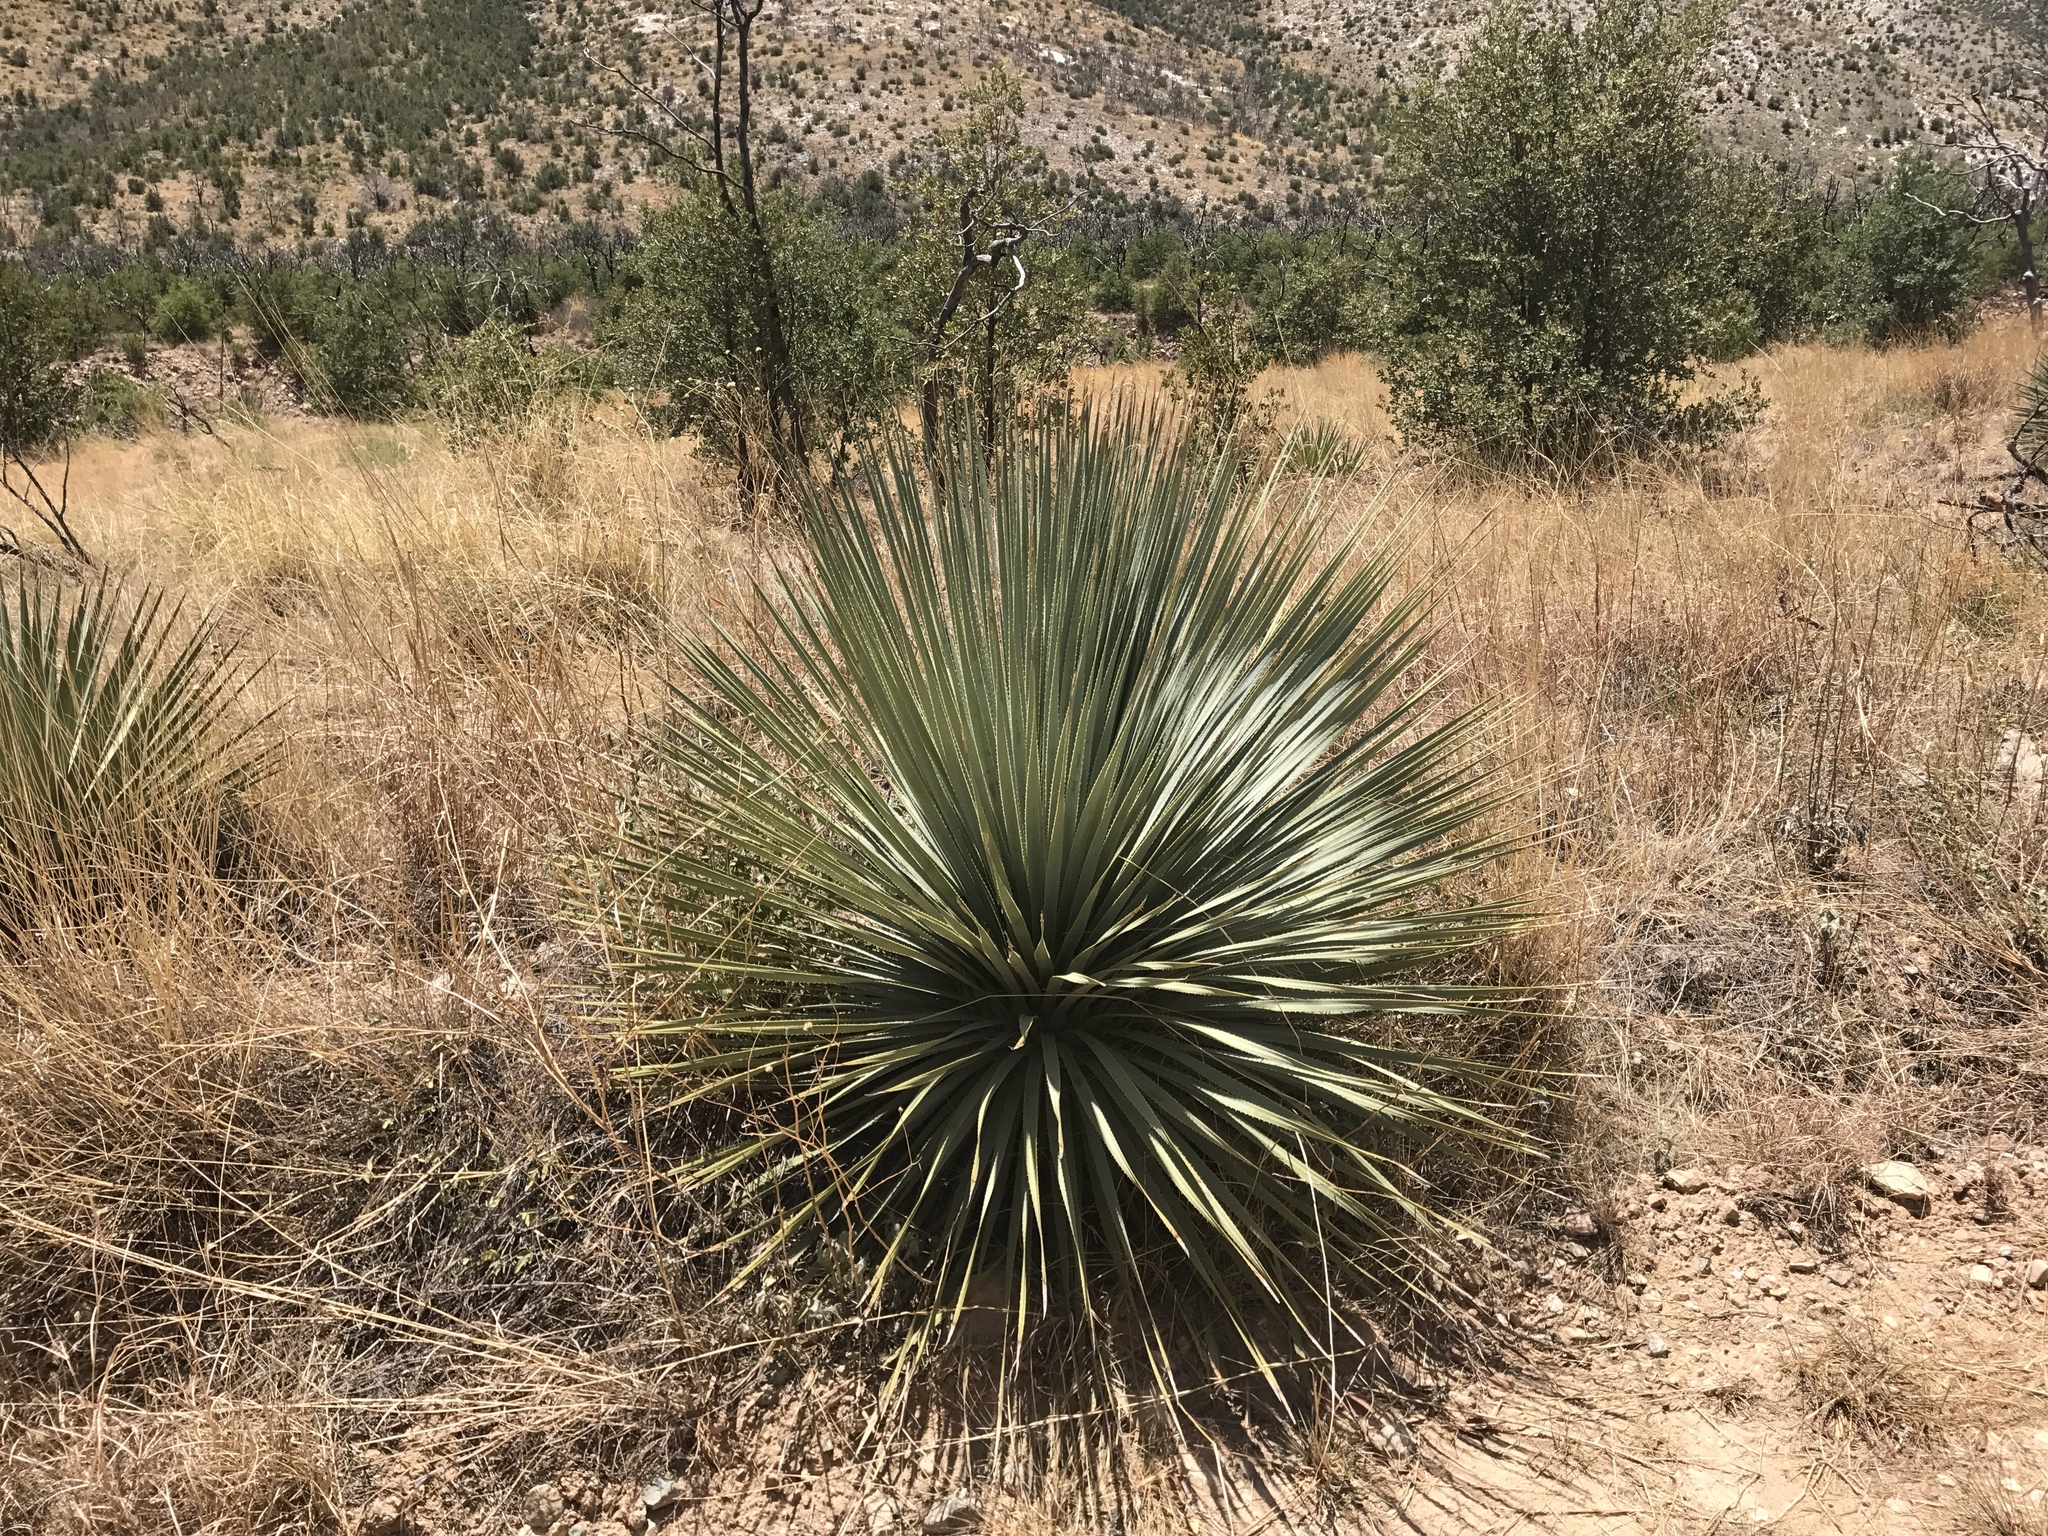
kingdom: Plantae
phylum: Tracheophyta
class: Liliopsida
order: Asparagales
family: Asparagaceae
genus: Dasylirion
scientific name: Dasylirion wheeleri
